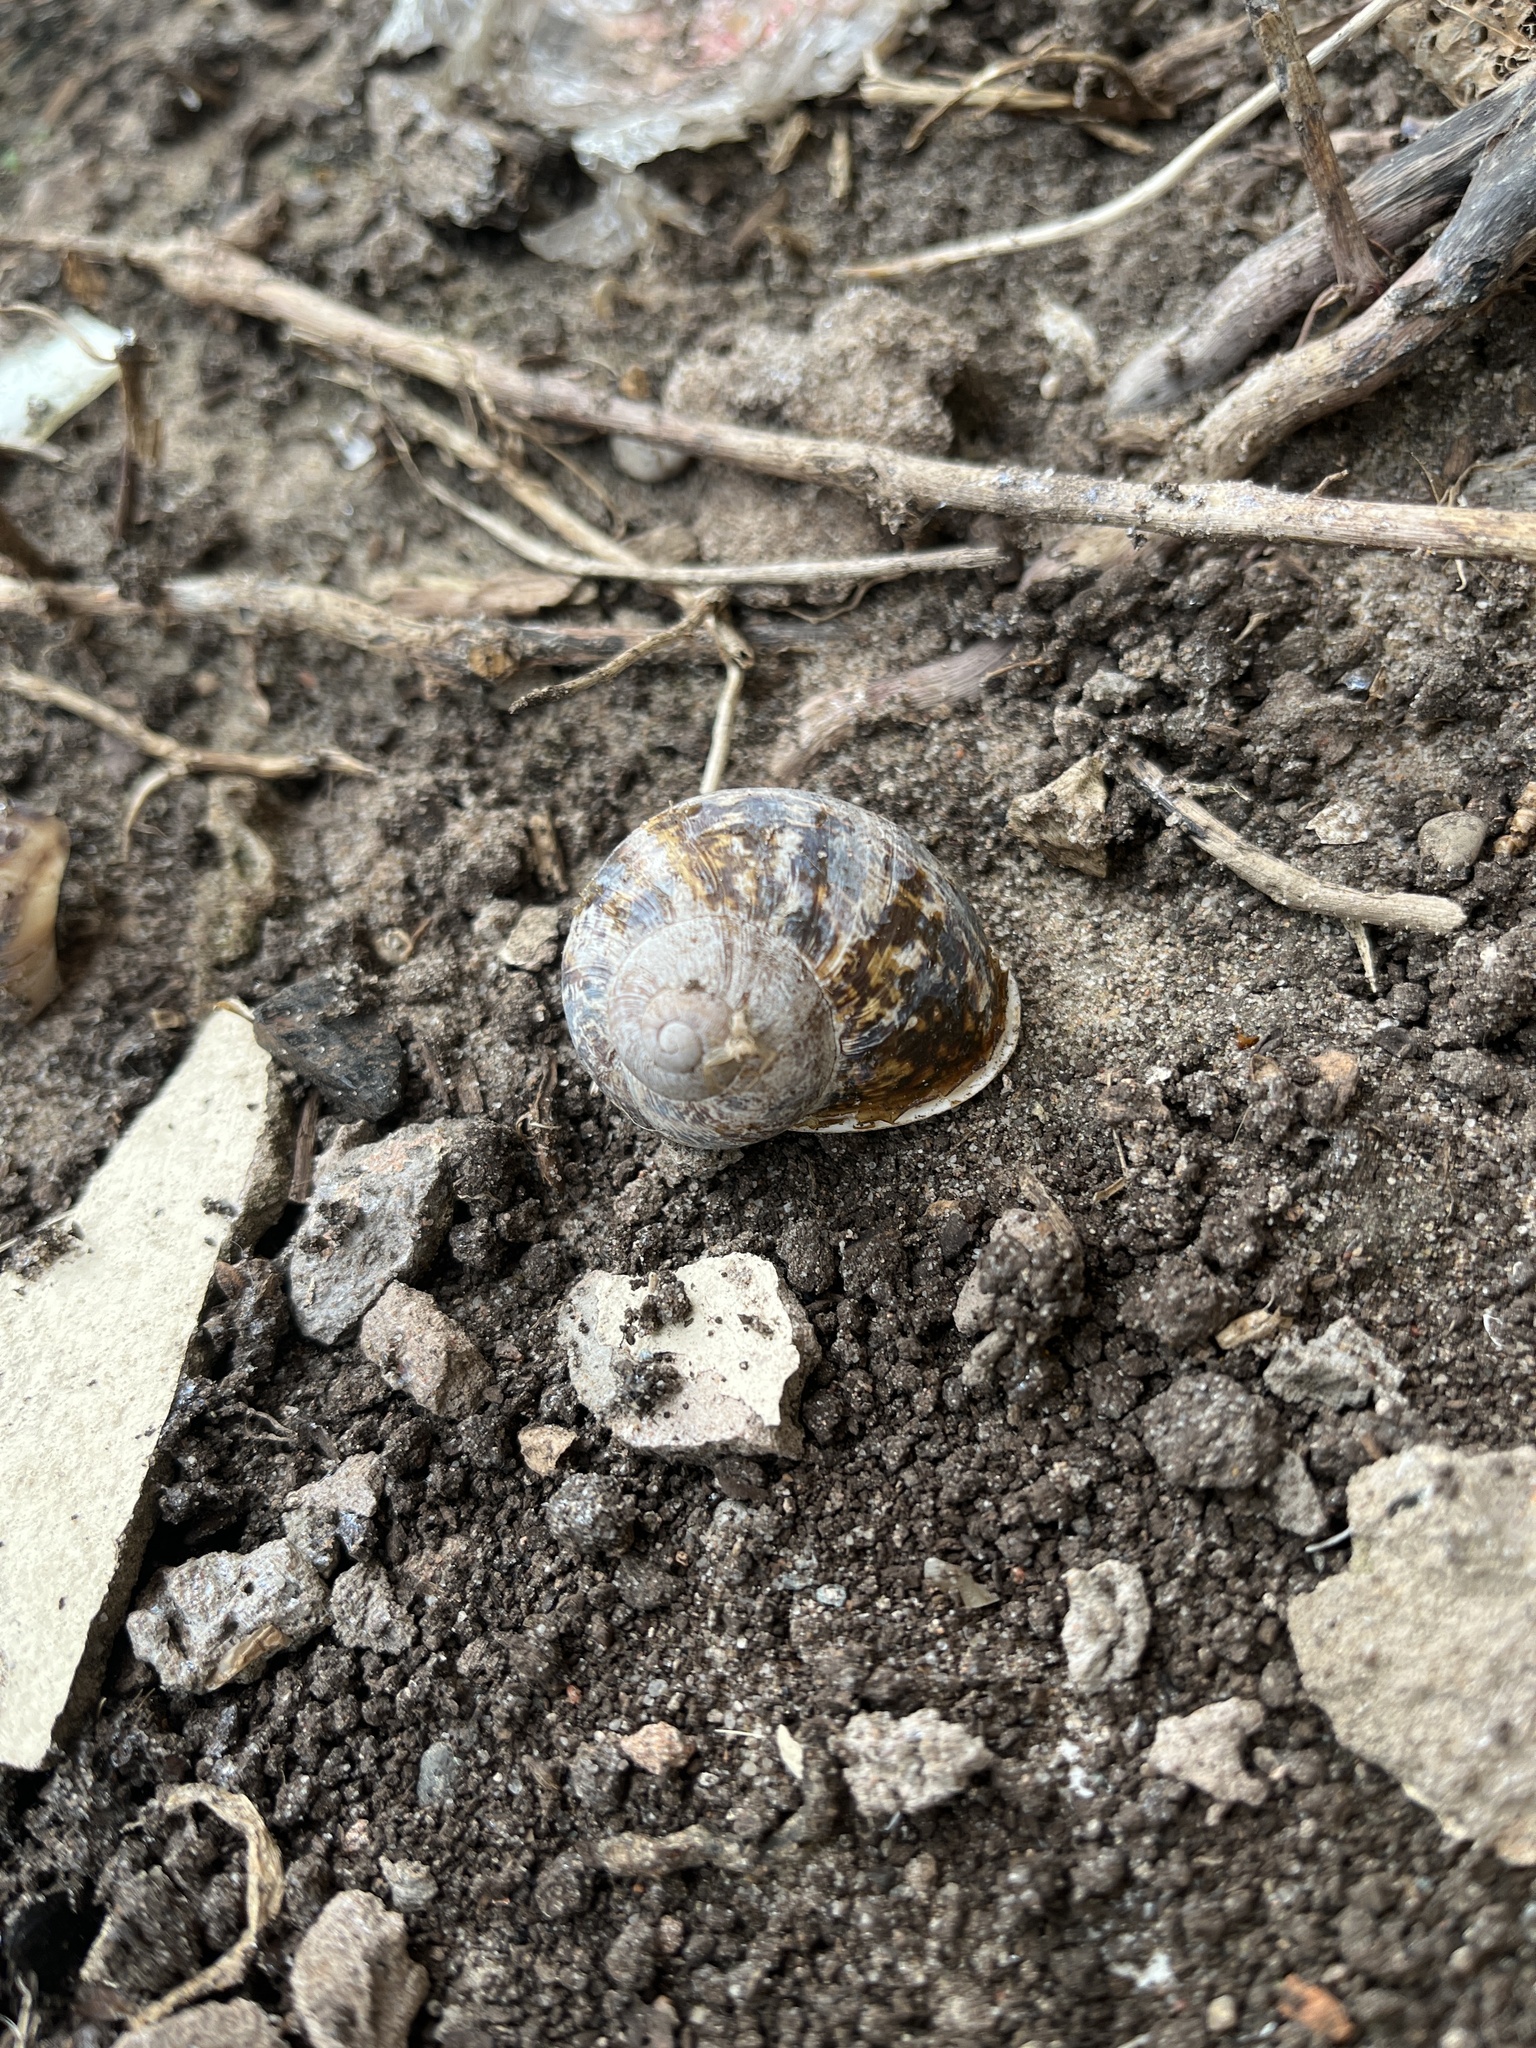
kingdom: Animalia
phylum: Mollusca
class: Gastropoda
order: Stylommatophora
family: Helicidae
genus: Cornu
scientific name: Cornu aspersum
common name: Brown garden snail
